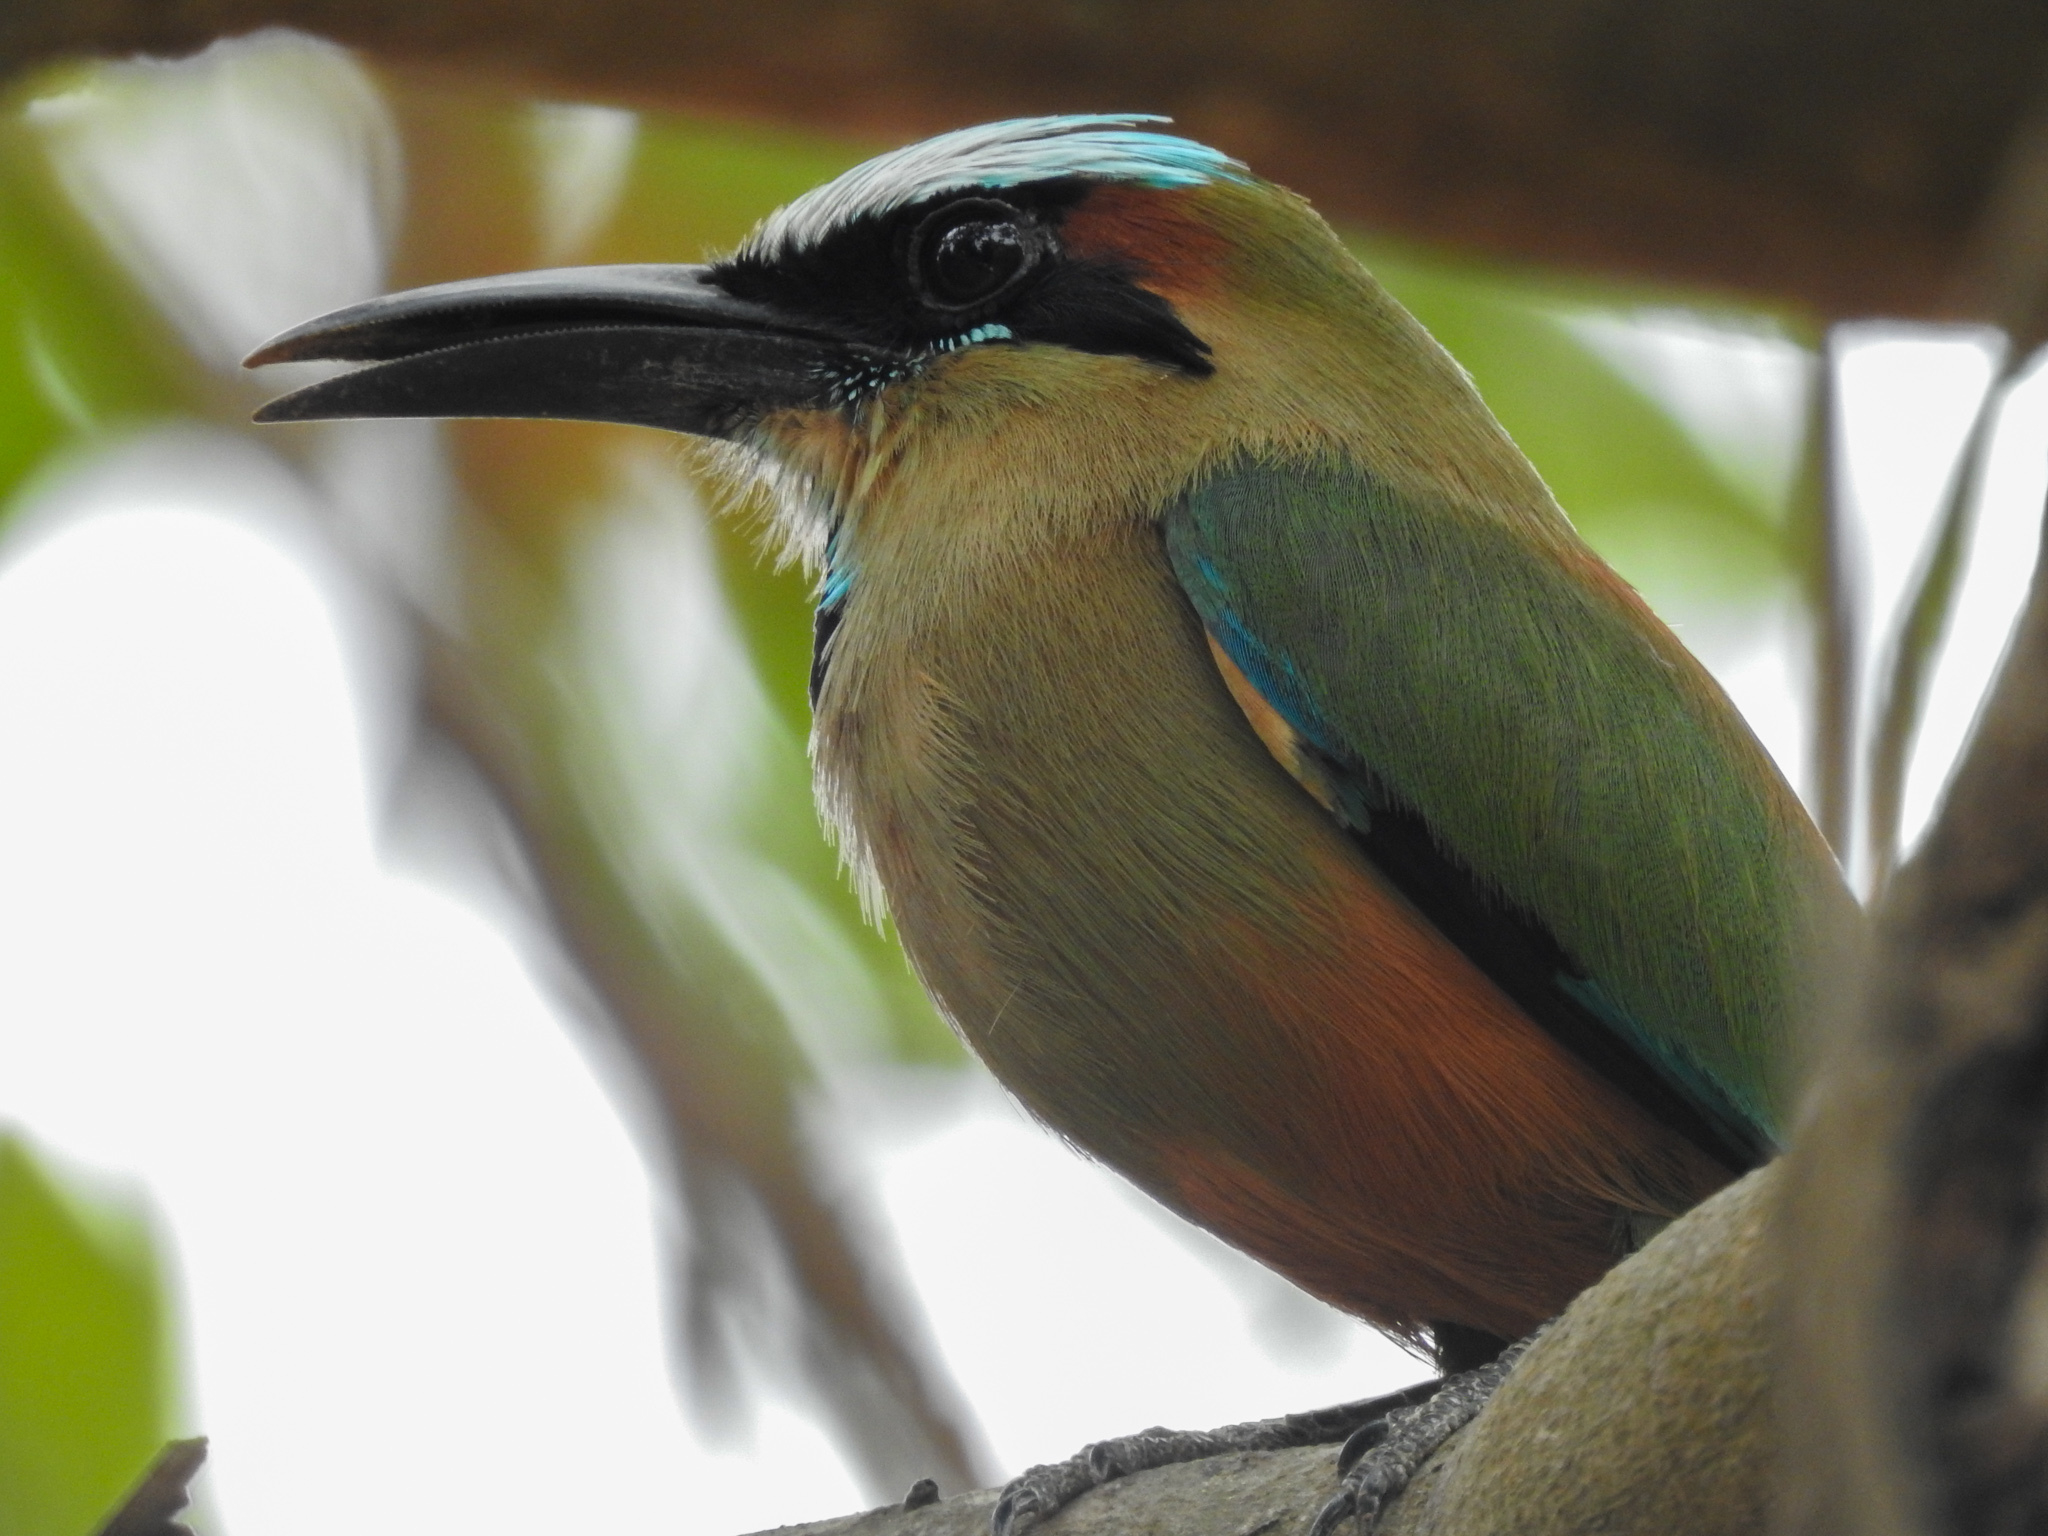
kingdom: Animalia
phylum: Chordata
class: Aves
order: Coraciiformes
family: Momotidae
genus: Eumomota
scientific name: Eumomota superciliosa
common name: Turquoise-browed motmot
